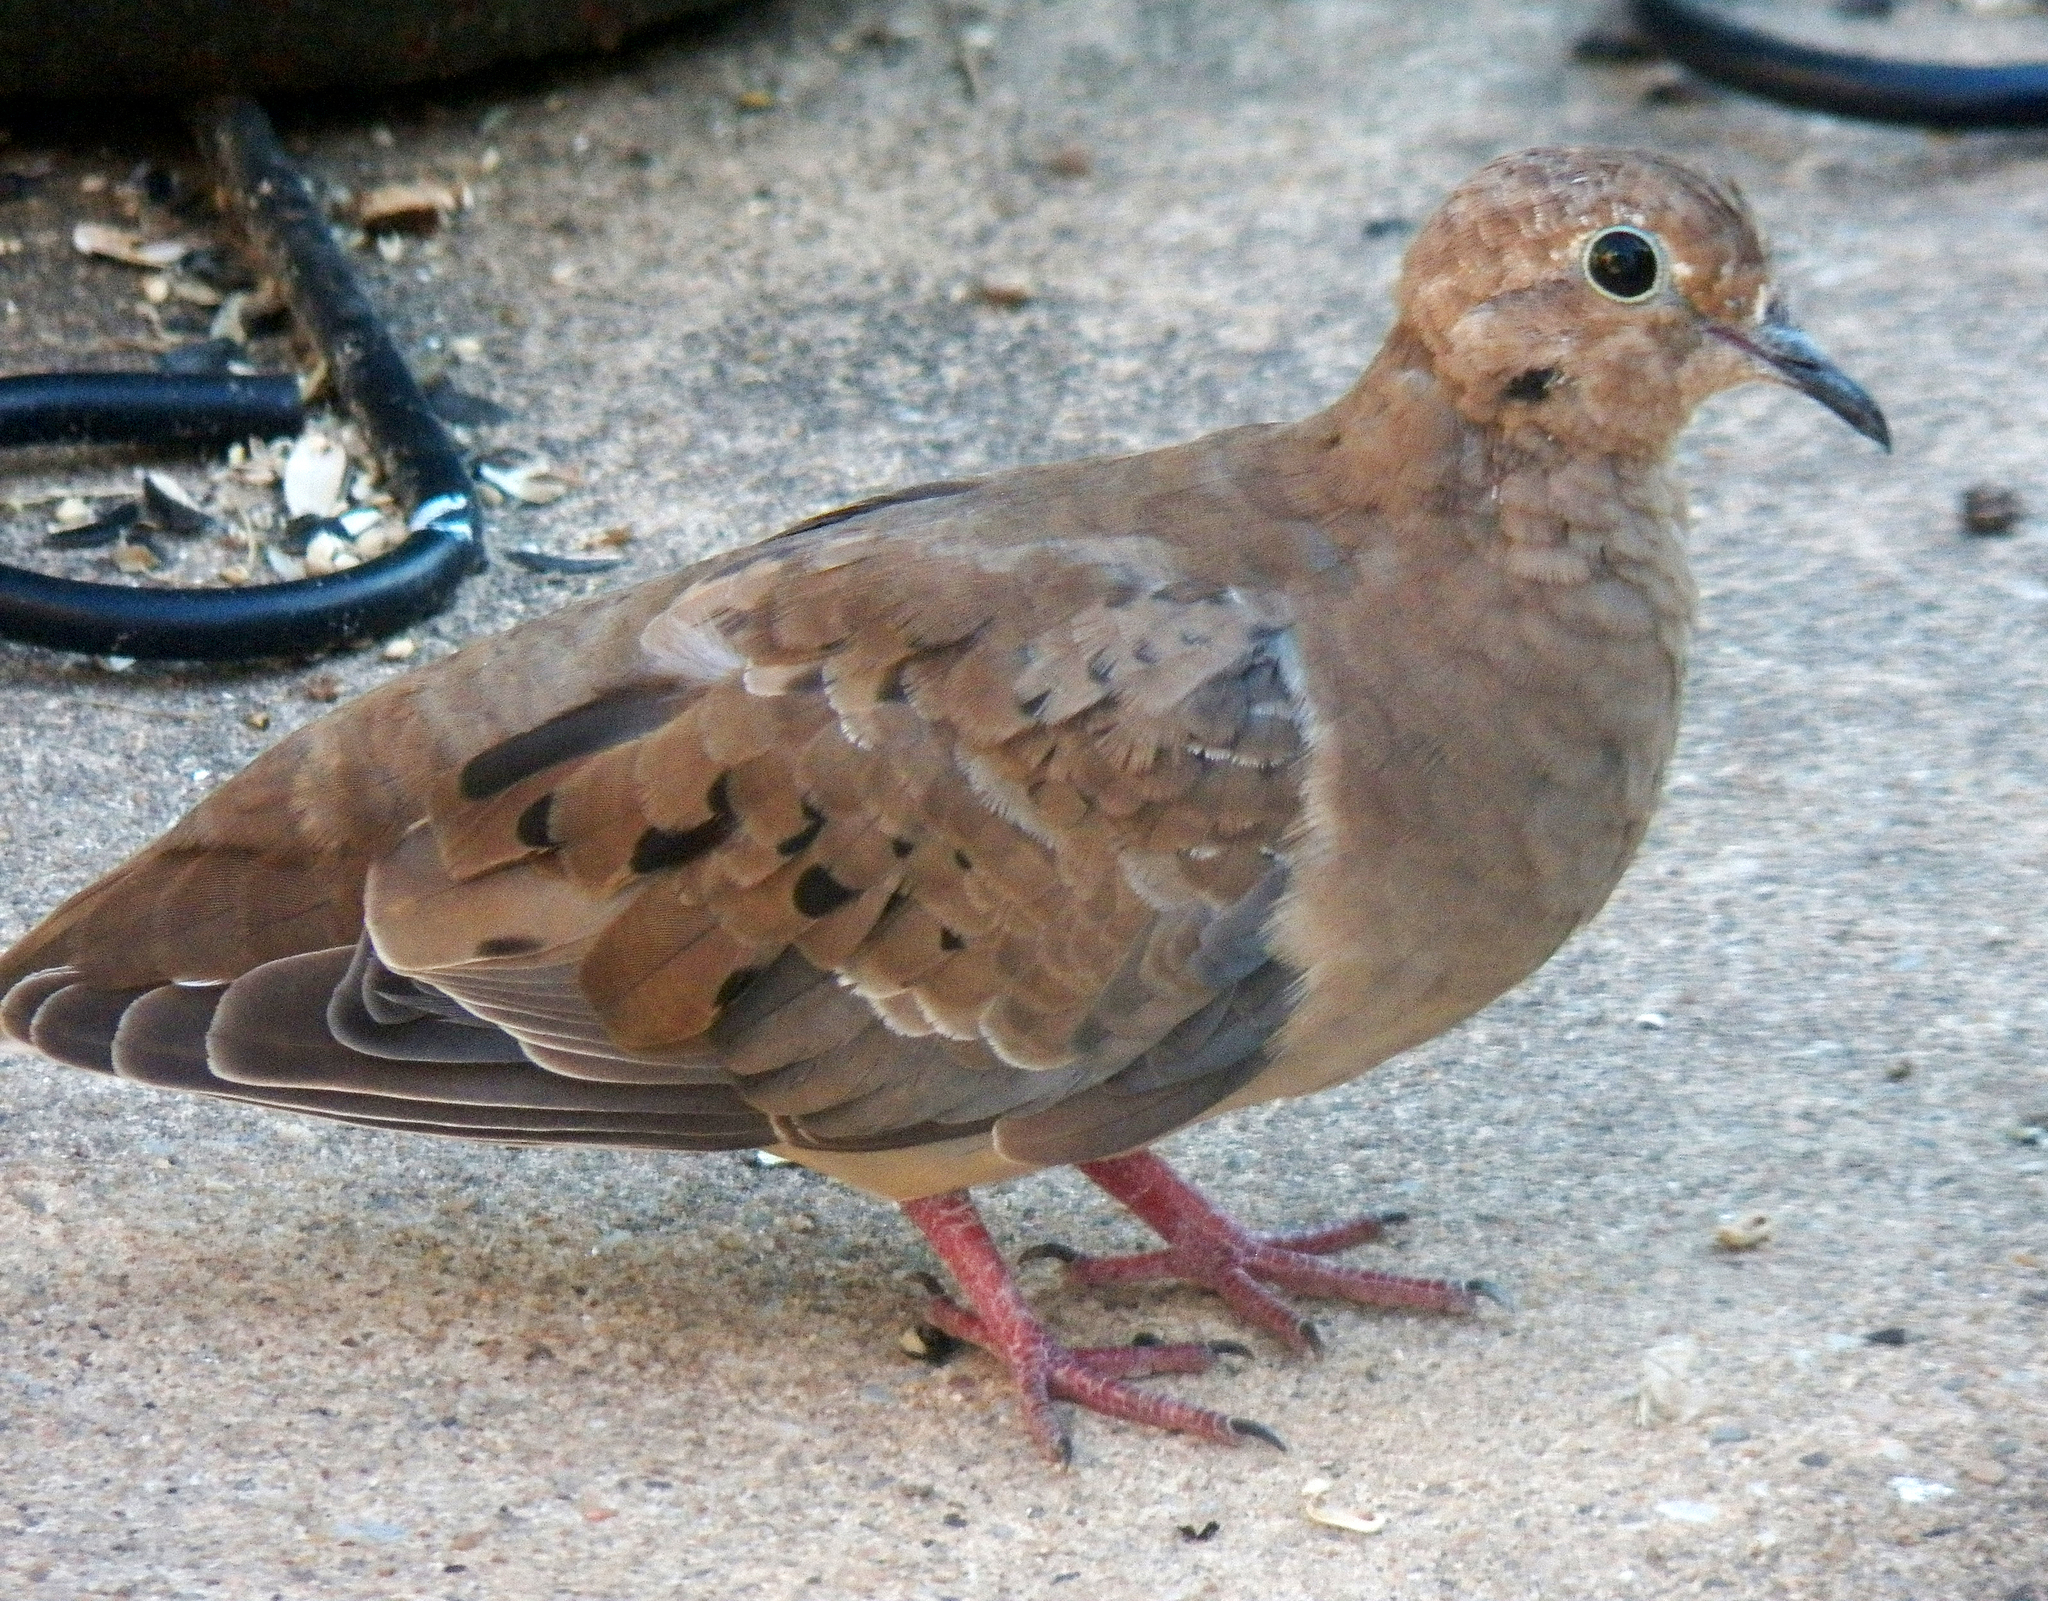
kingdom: Animalia
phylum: Chordata
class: Aves
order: Columbiformes
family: Columbidae
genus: Zenaida
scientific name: Zenaida macroura
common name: Mourning dove
